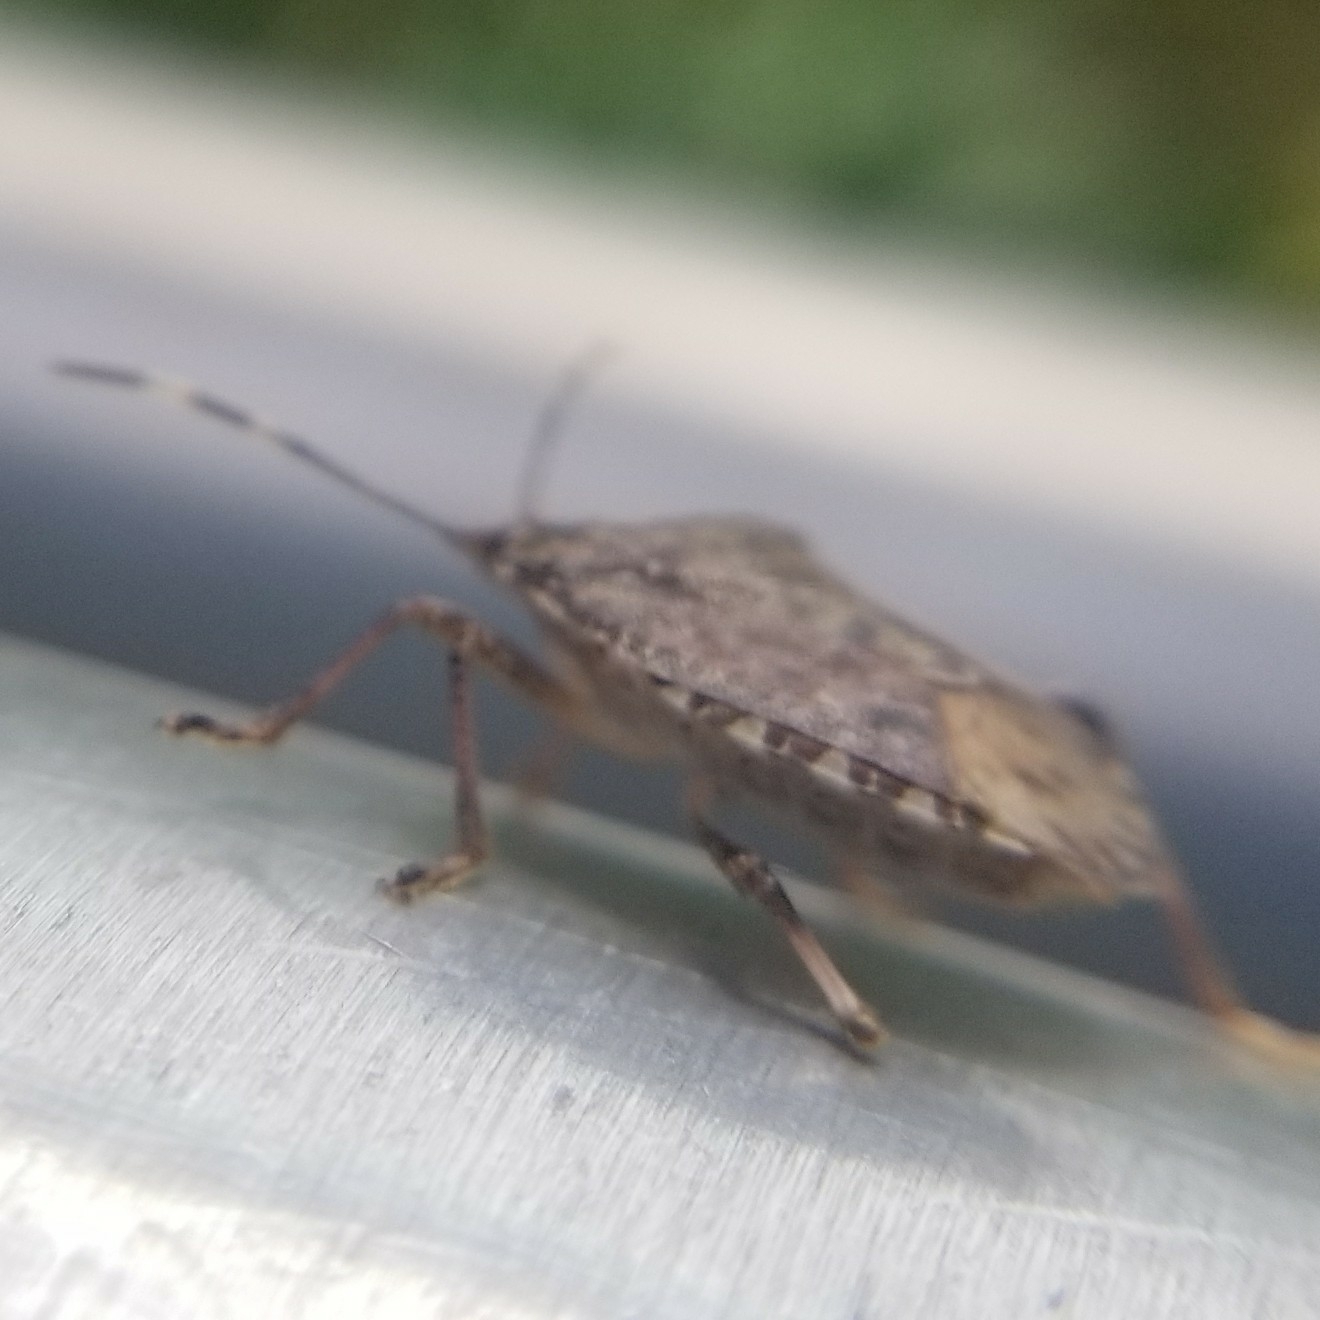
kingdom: Animalia
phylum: Arthropoda
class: Insecta
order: Hemiptera
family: Pentatomidae
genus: Halyomorpha
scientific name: Halyomorpha halys
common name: Brown marmorated stink bug
